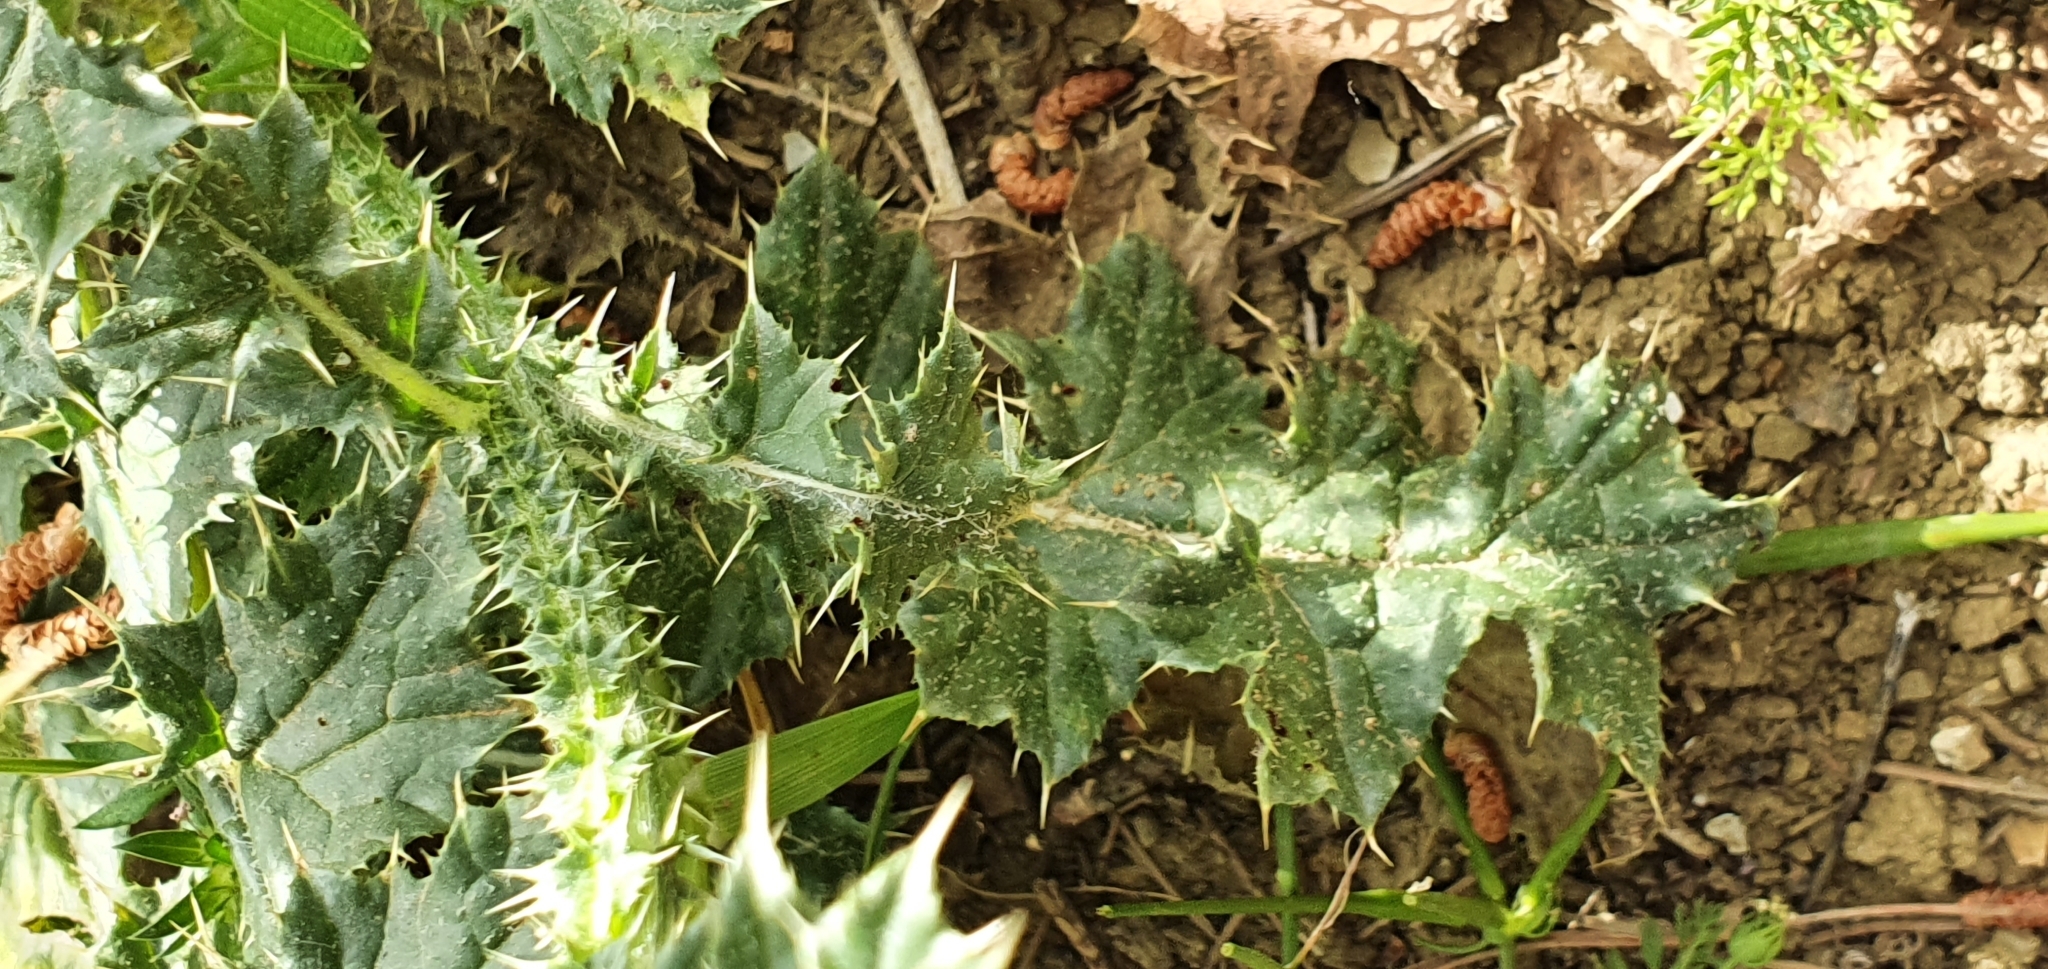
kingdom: Plantae
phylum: Tracheophyta
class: Magnoliopsida
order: Asterales
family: Asteraceae
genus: Carduus
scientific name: Carduus spachianus
